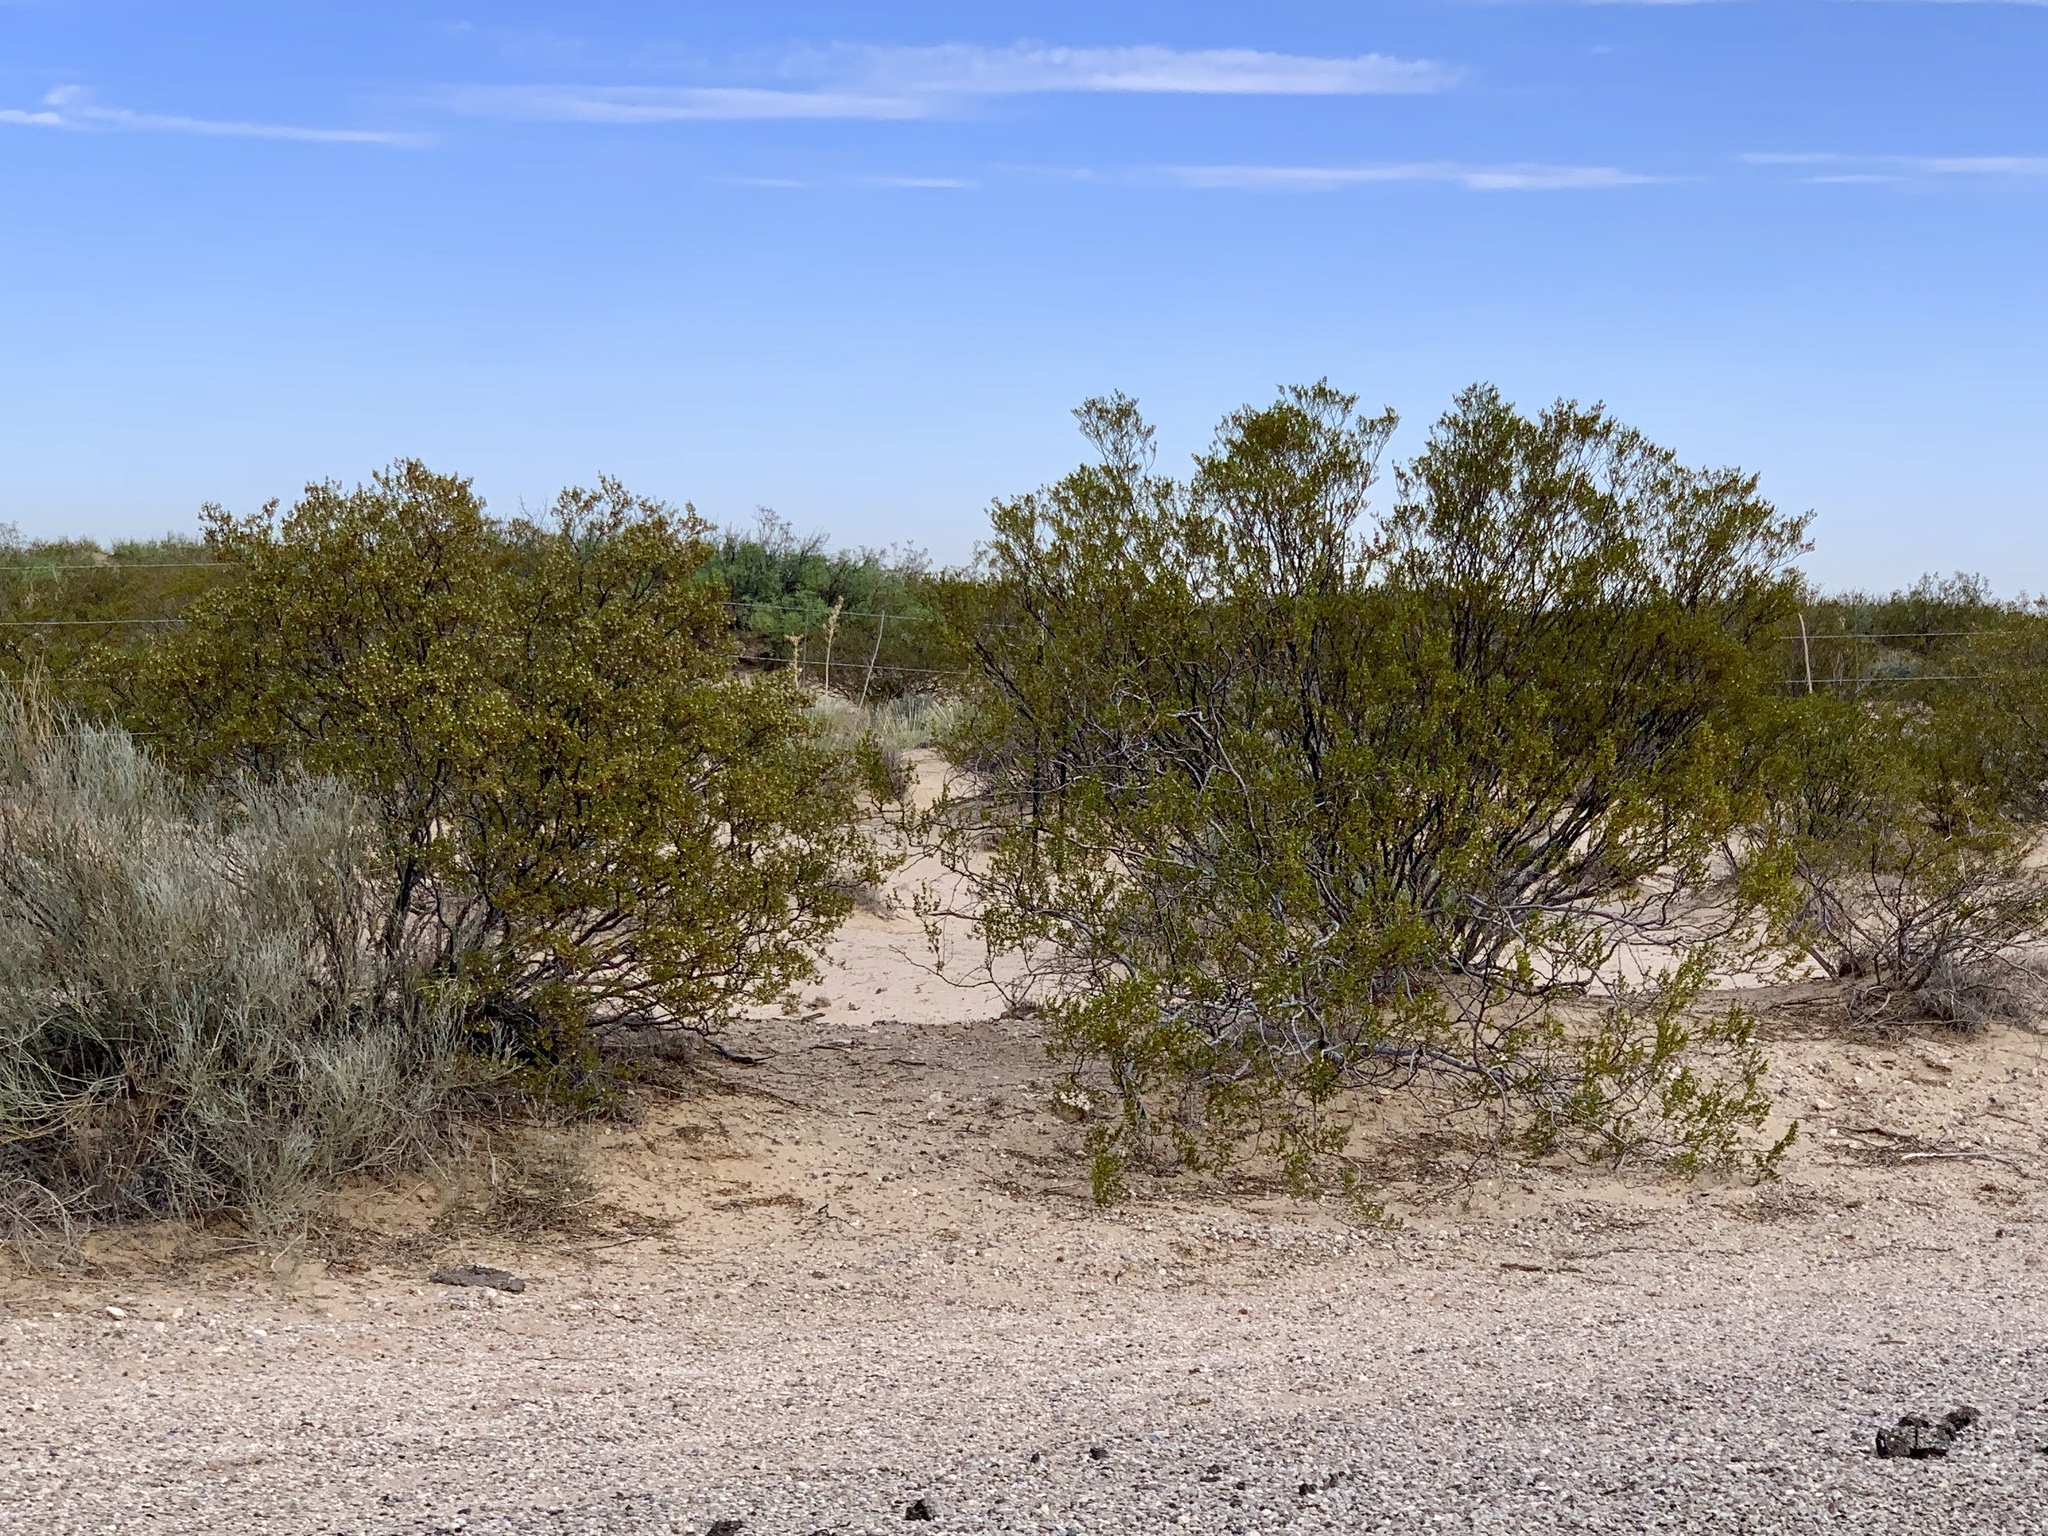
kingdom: Plantae
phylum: Tracheophyta
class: Magnoliopsida
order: Zygophyllales
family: Zygophyllaceae
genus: Larrea
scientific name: Larrea tridentata
